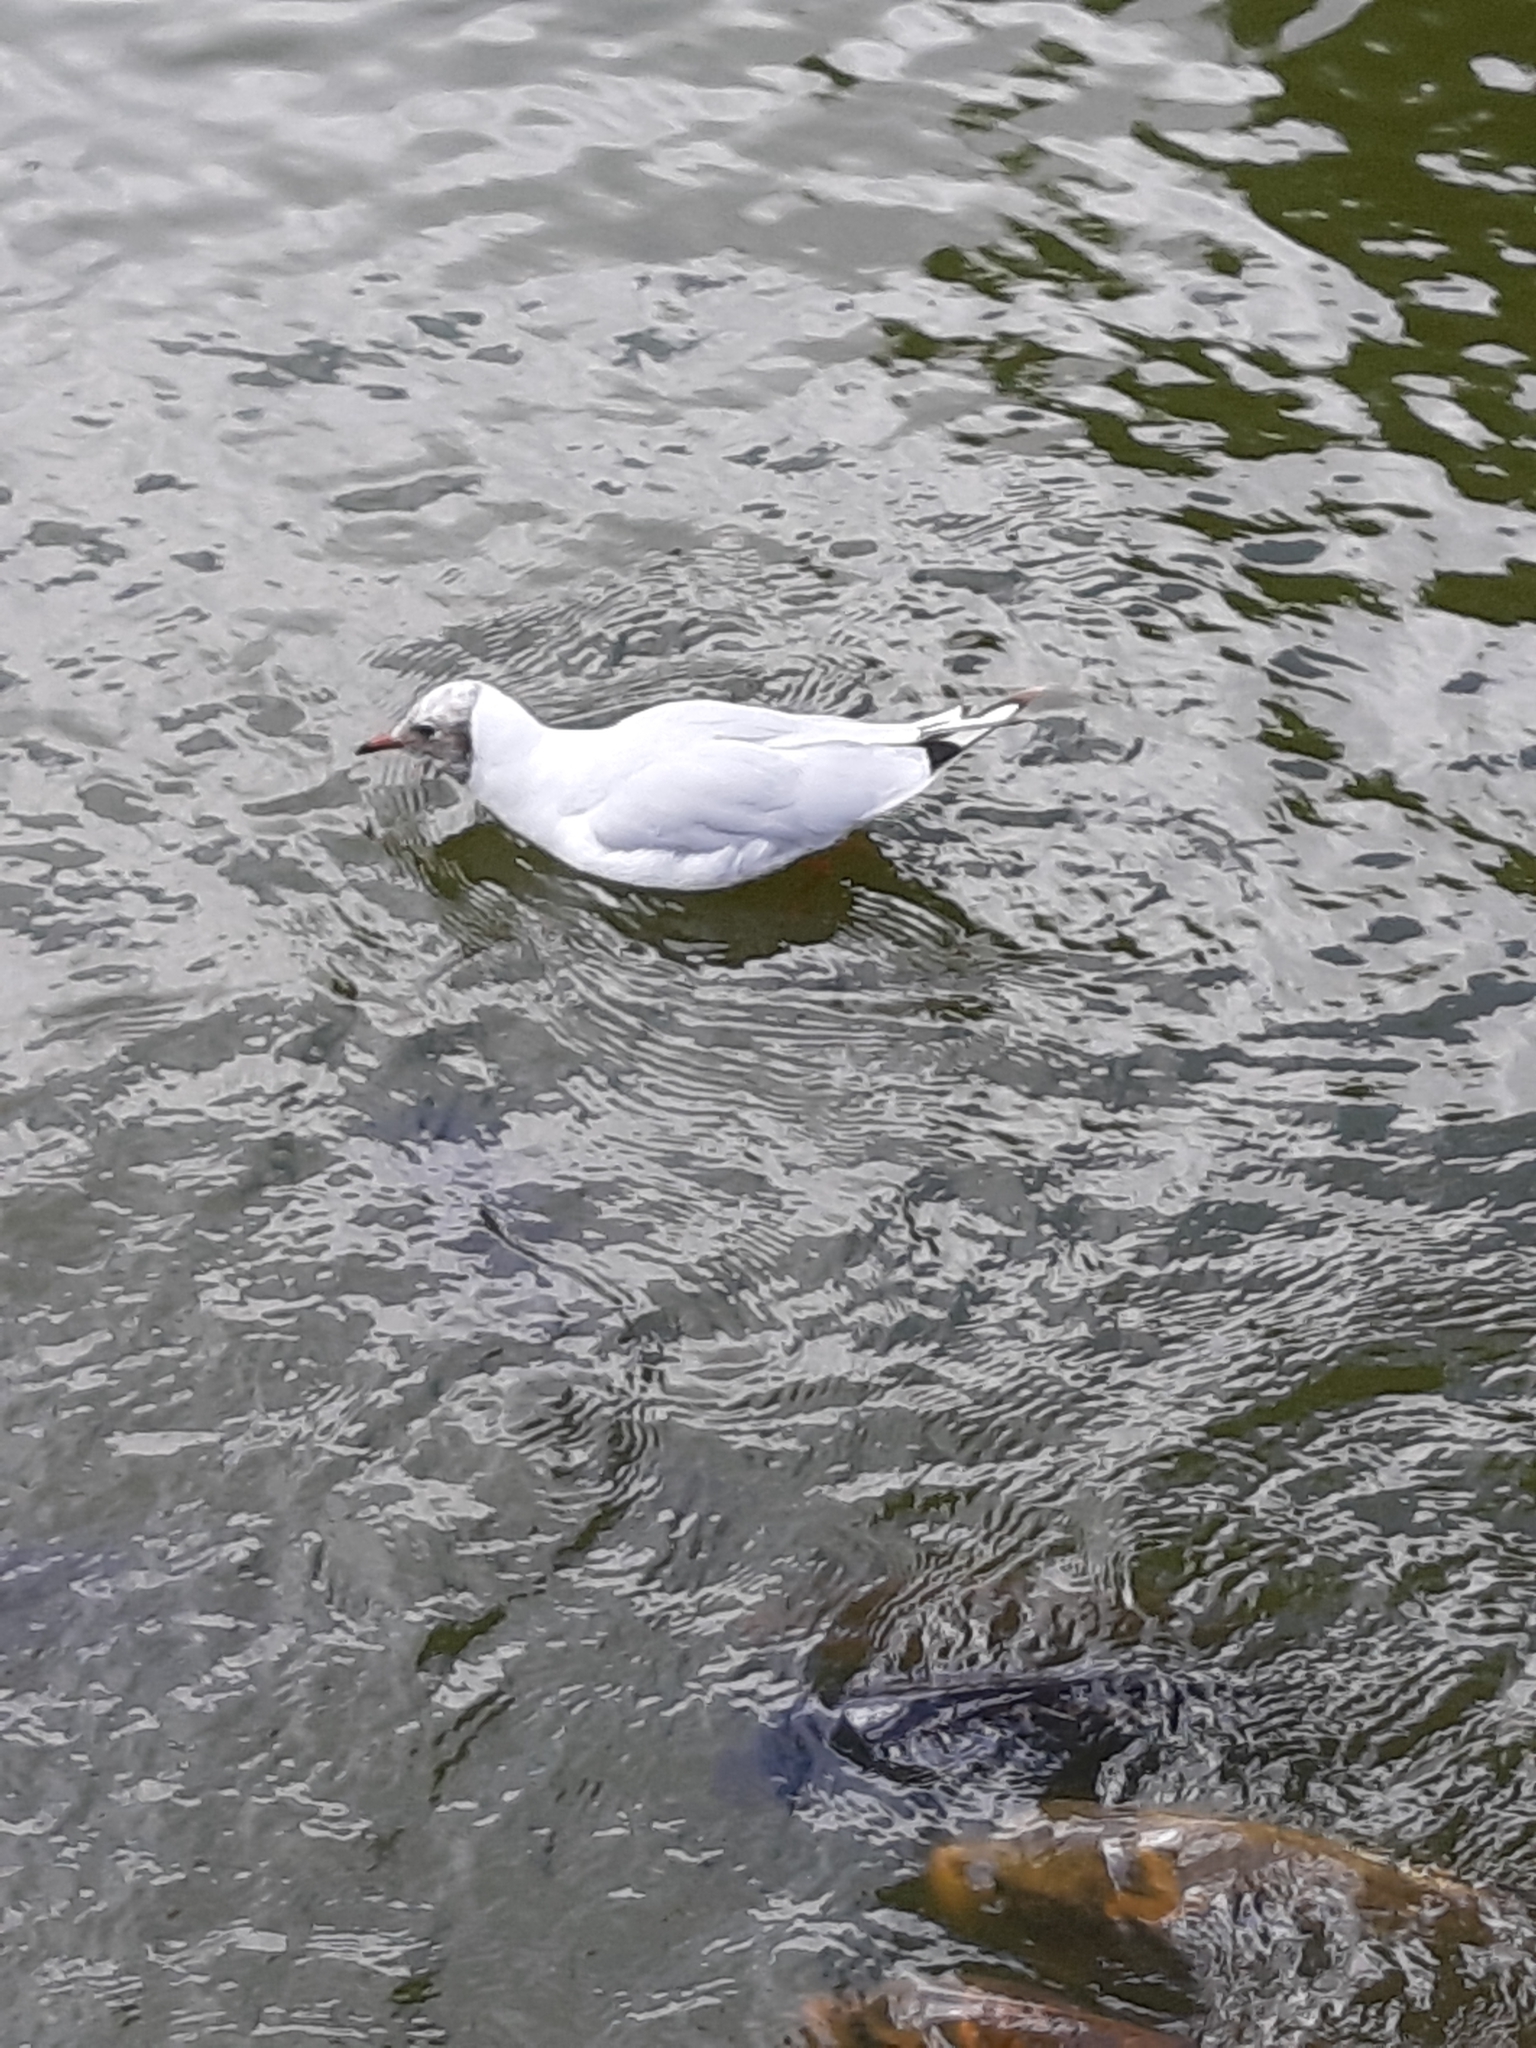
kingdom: Animalia
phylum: Chordata
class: Aves
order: Charadriiformes
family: Laridae
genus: Chroicocephalus
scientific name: Chroicocephalus ridibundus
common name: Black-headed gull
